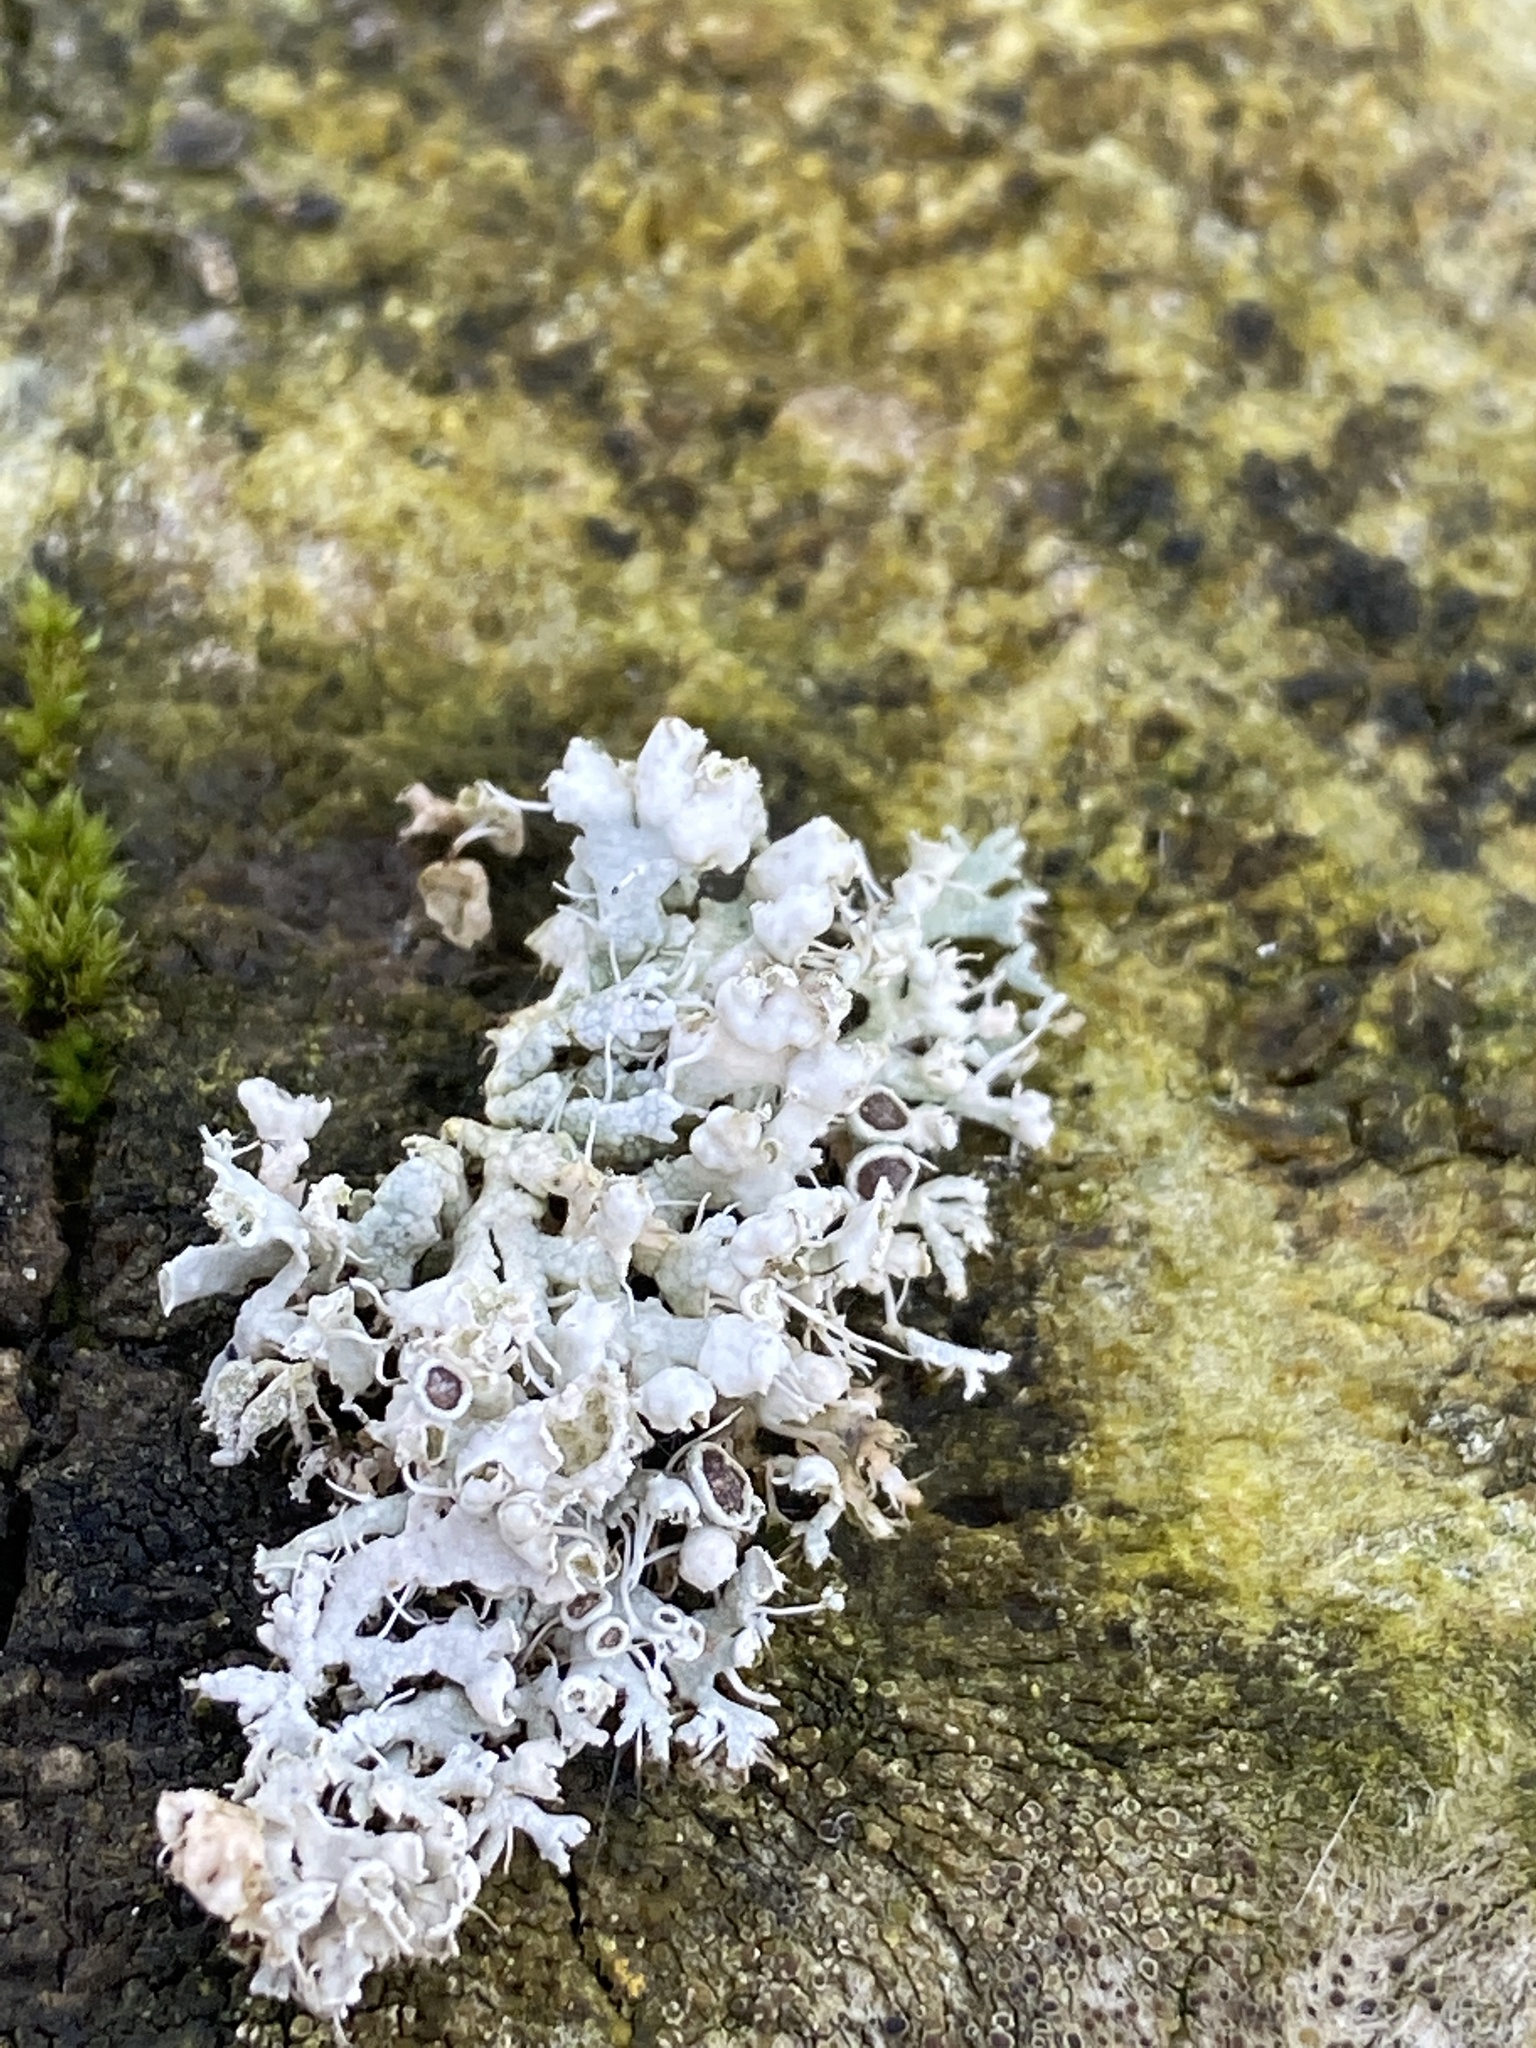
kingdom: Fungi
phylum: Ascomycota
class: Lecanoromycetes
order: Caliciales
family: Physciaceae
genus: Physcia
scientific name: Physcia adscendens
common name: Hooded rosette lichen
